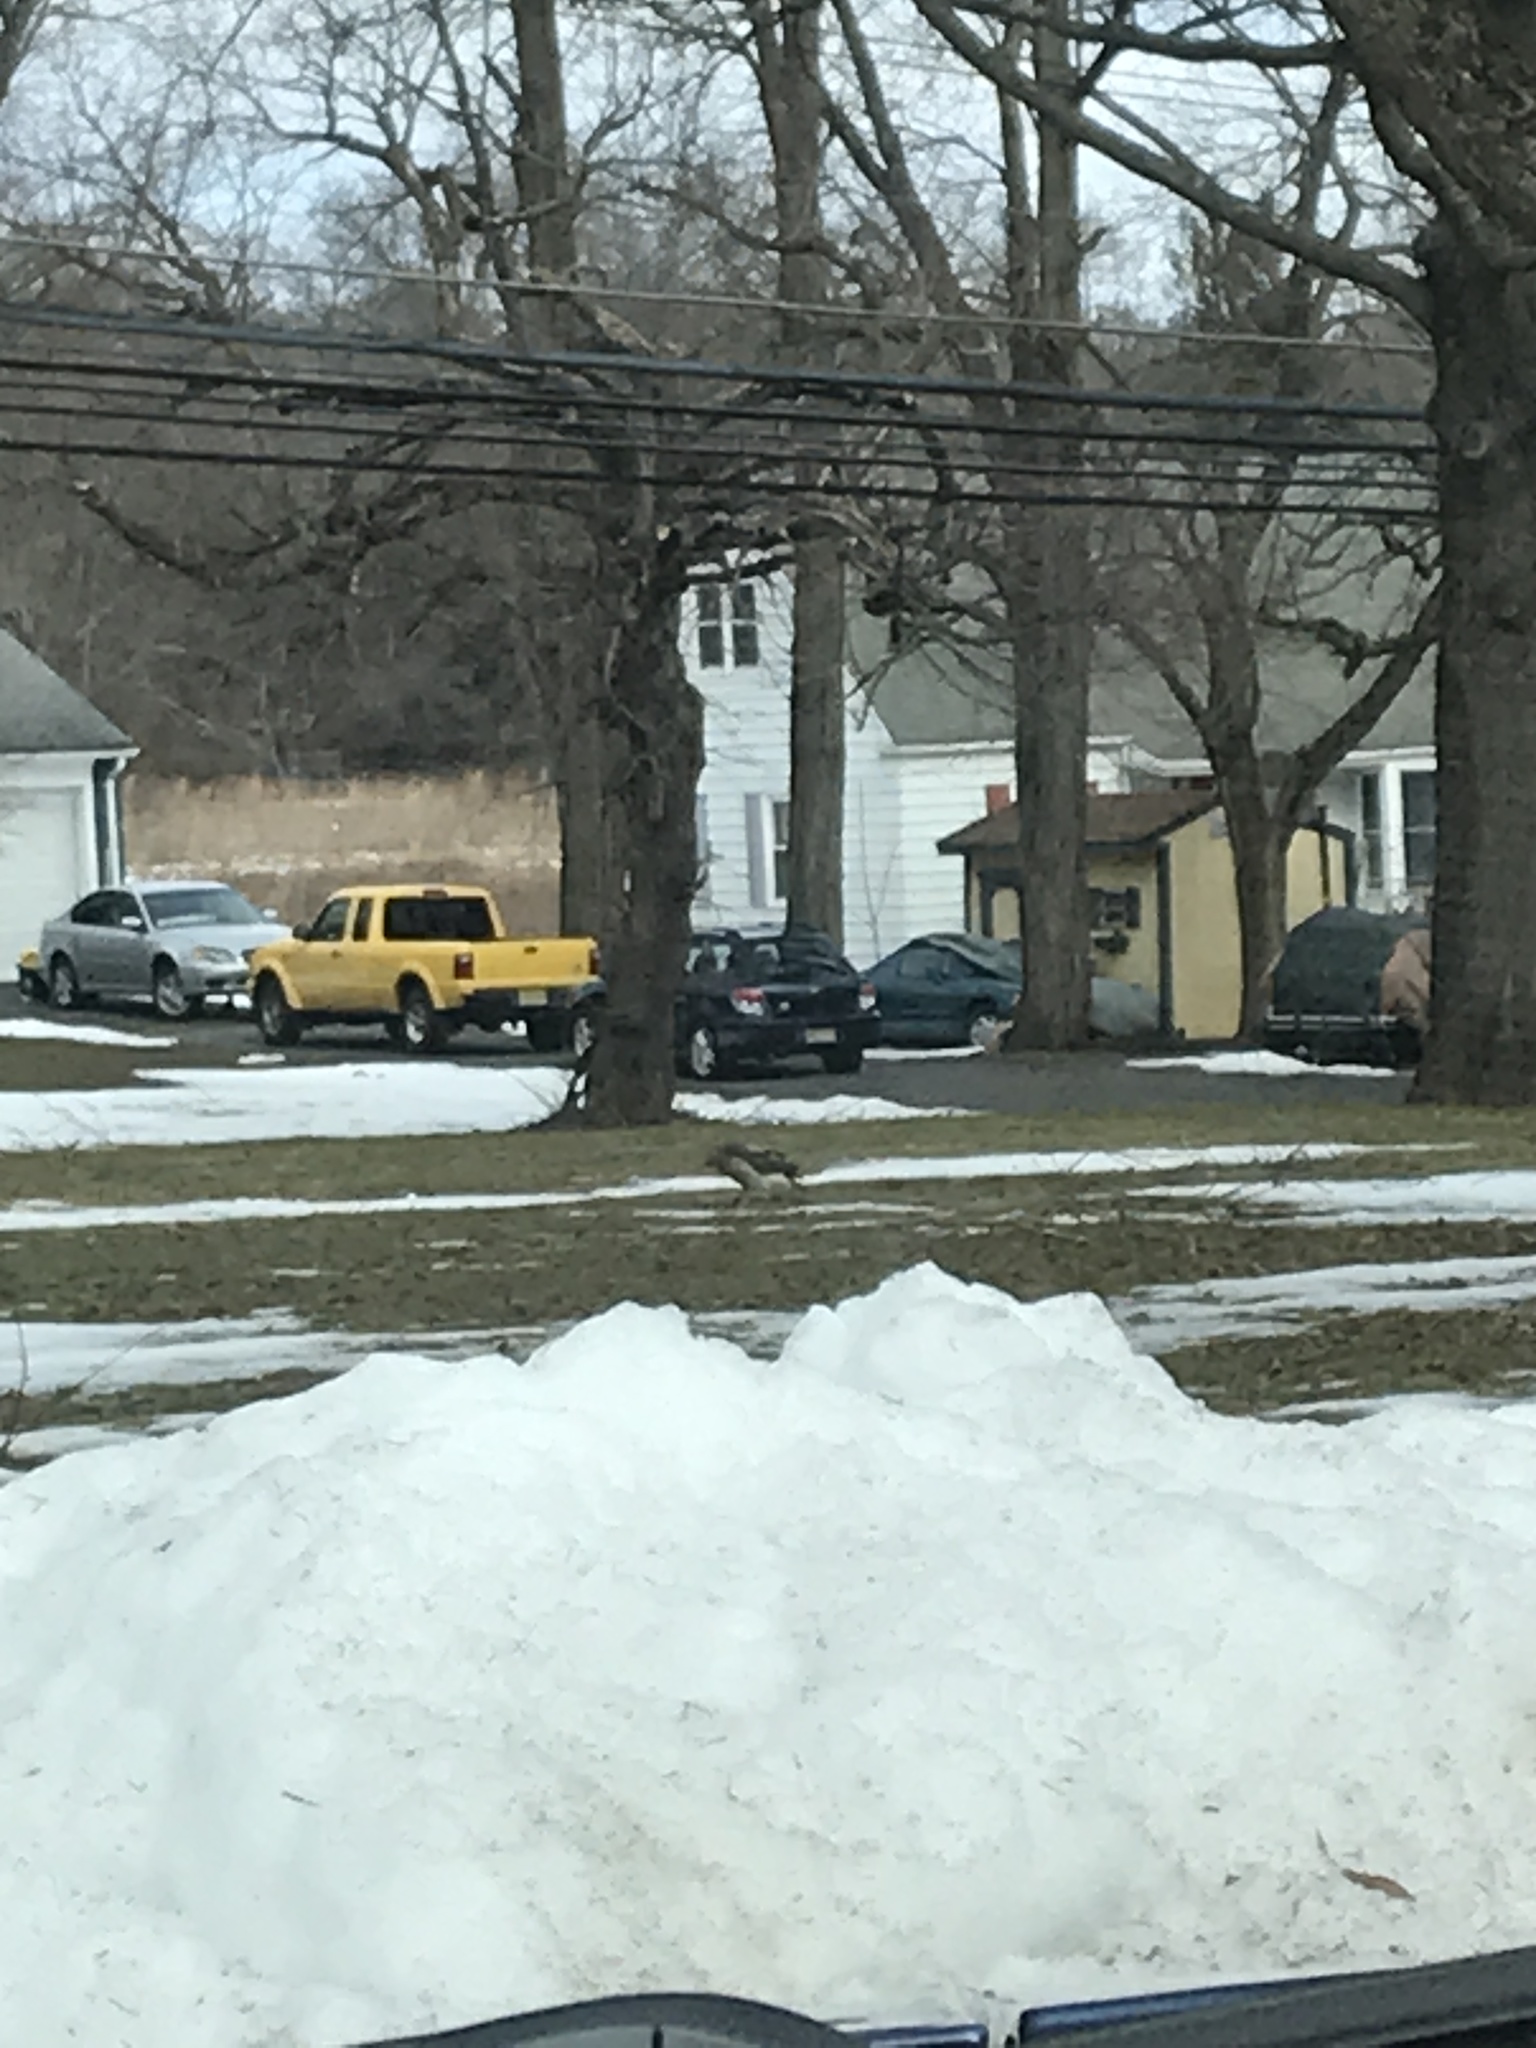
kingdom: Animalia
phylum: Chordata
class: Aves
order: Accipitriformes
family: Accipitridae
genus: Buteo
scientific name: Buteo jamaicensis
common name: Red-tailed hawk
